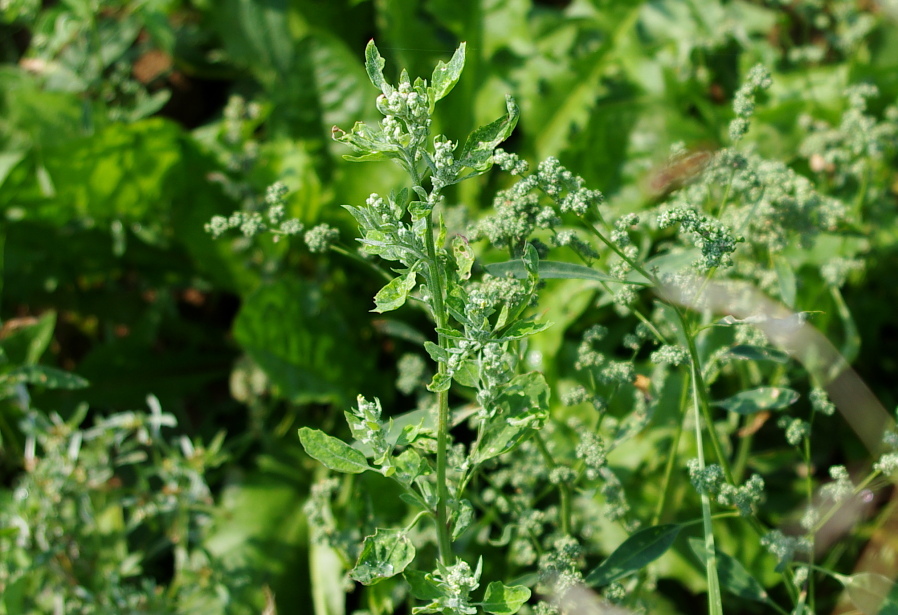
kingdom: Plantae
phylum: Tracheophyta
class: Magnoliopsida
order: Caryophyllales
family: Amaranthaceae
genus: Chenopodium
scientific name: Chenopodium album
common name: Fat-hen
